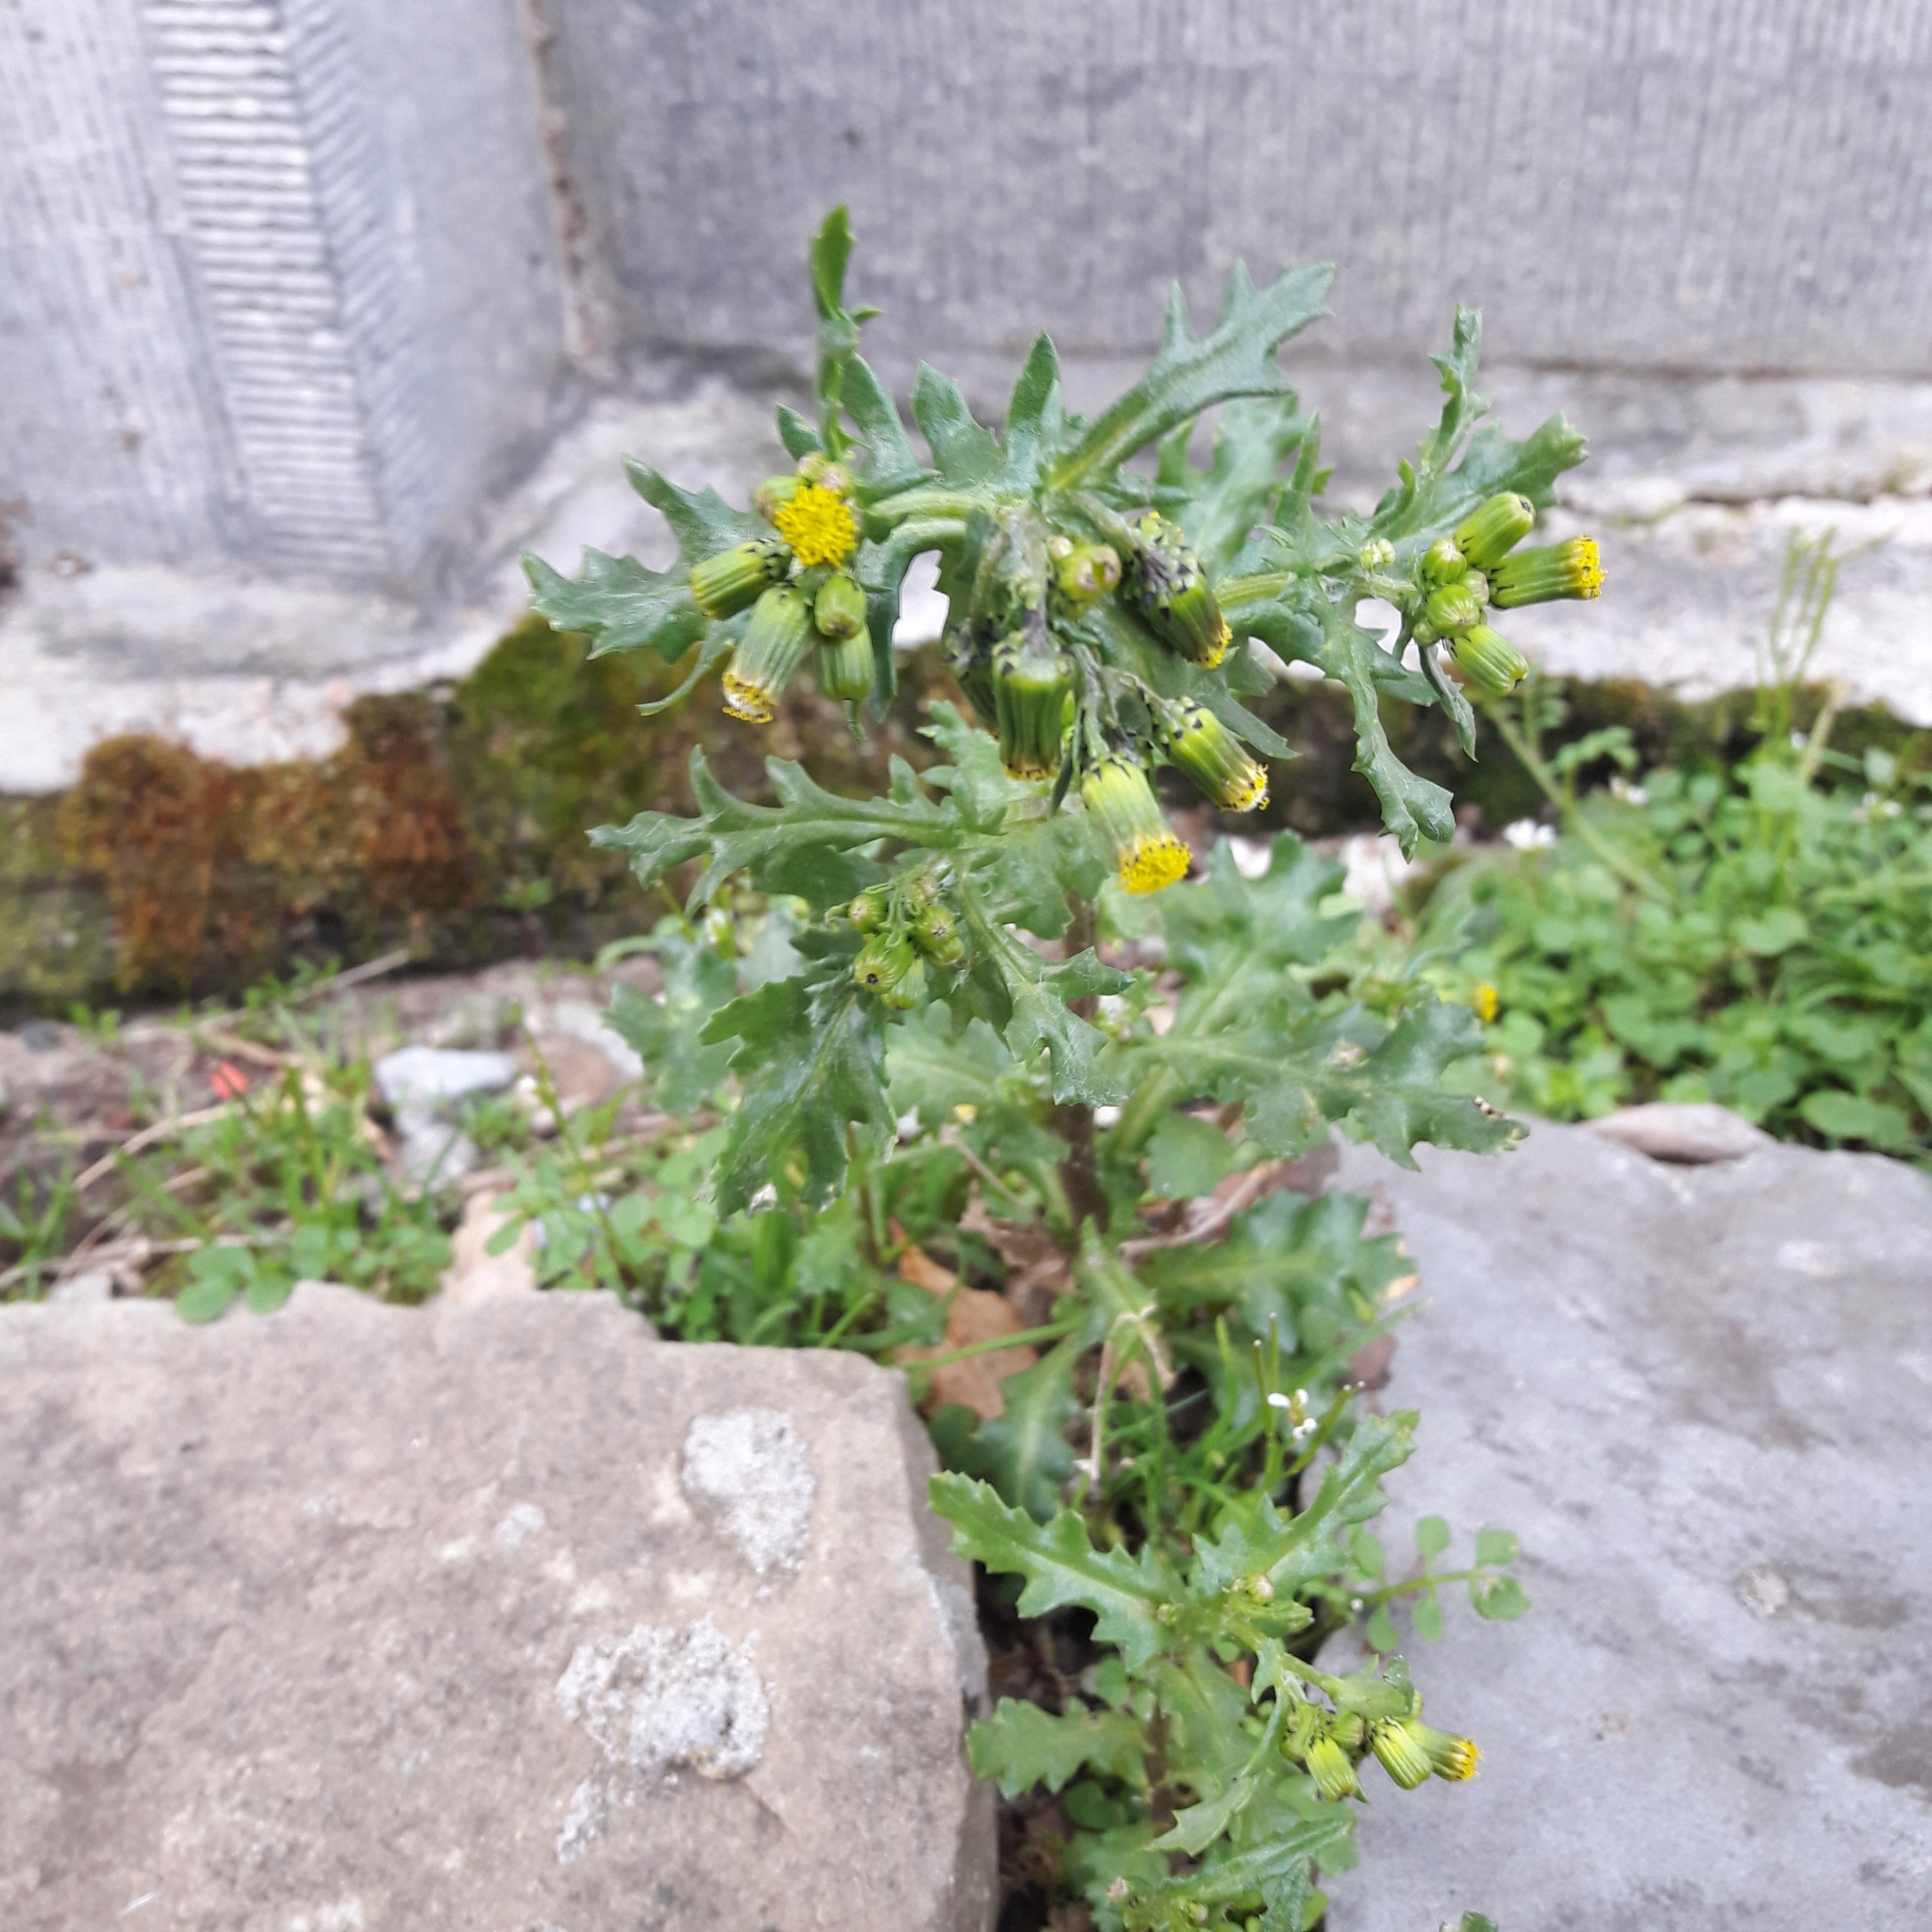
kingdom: Plantae
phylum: Tracheophyta
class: Magnoliopsida
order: Asterales
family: Asteraceae
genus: Senecio
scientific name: Senecio vulgaris
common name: Old-man-in-the-spring
